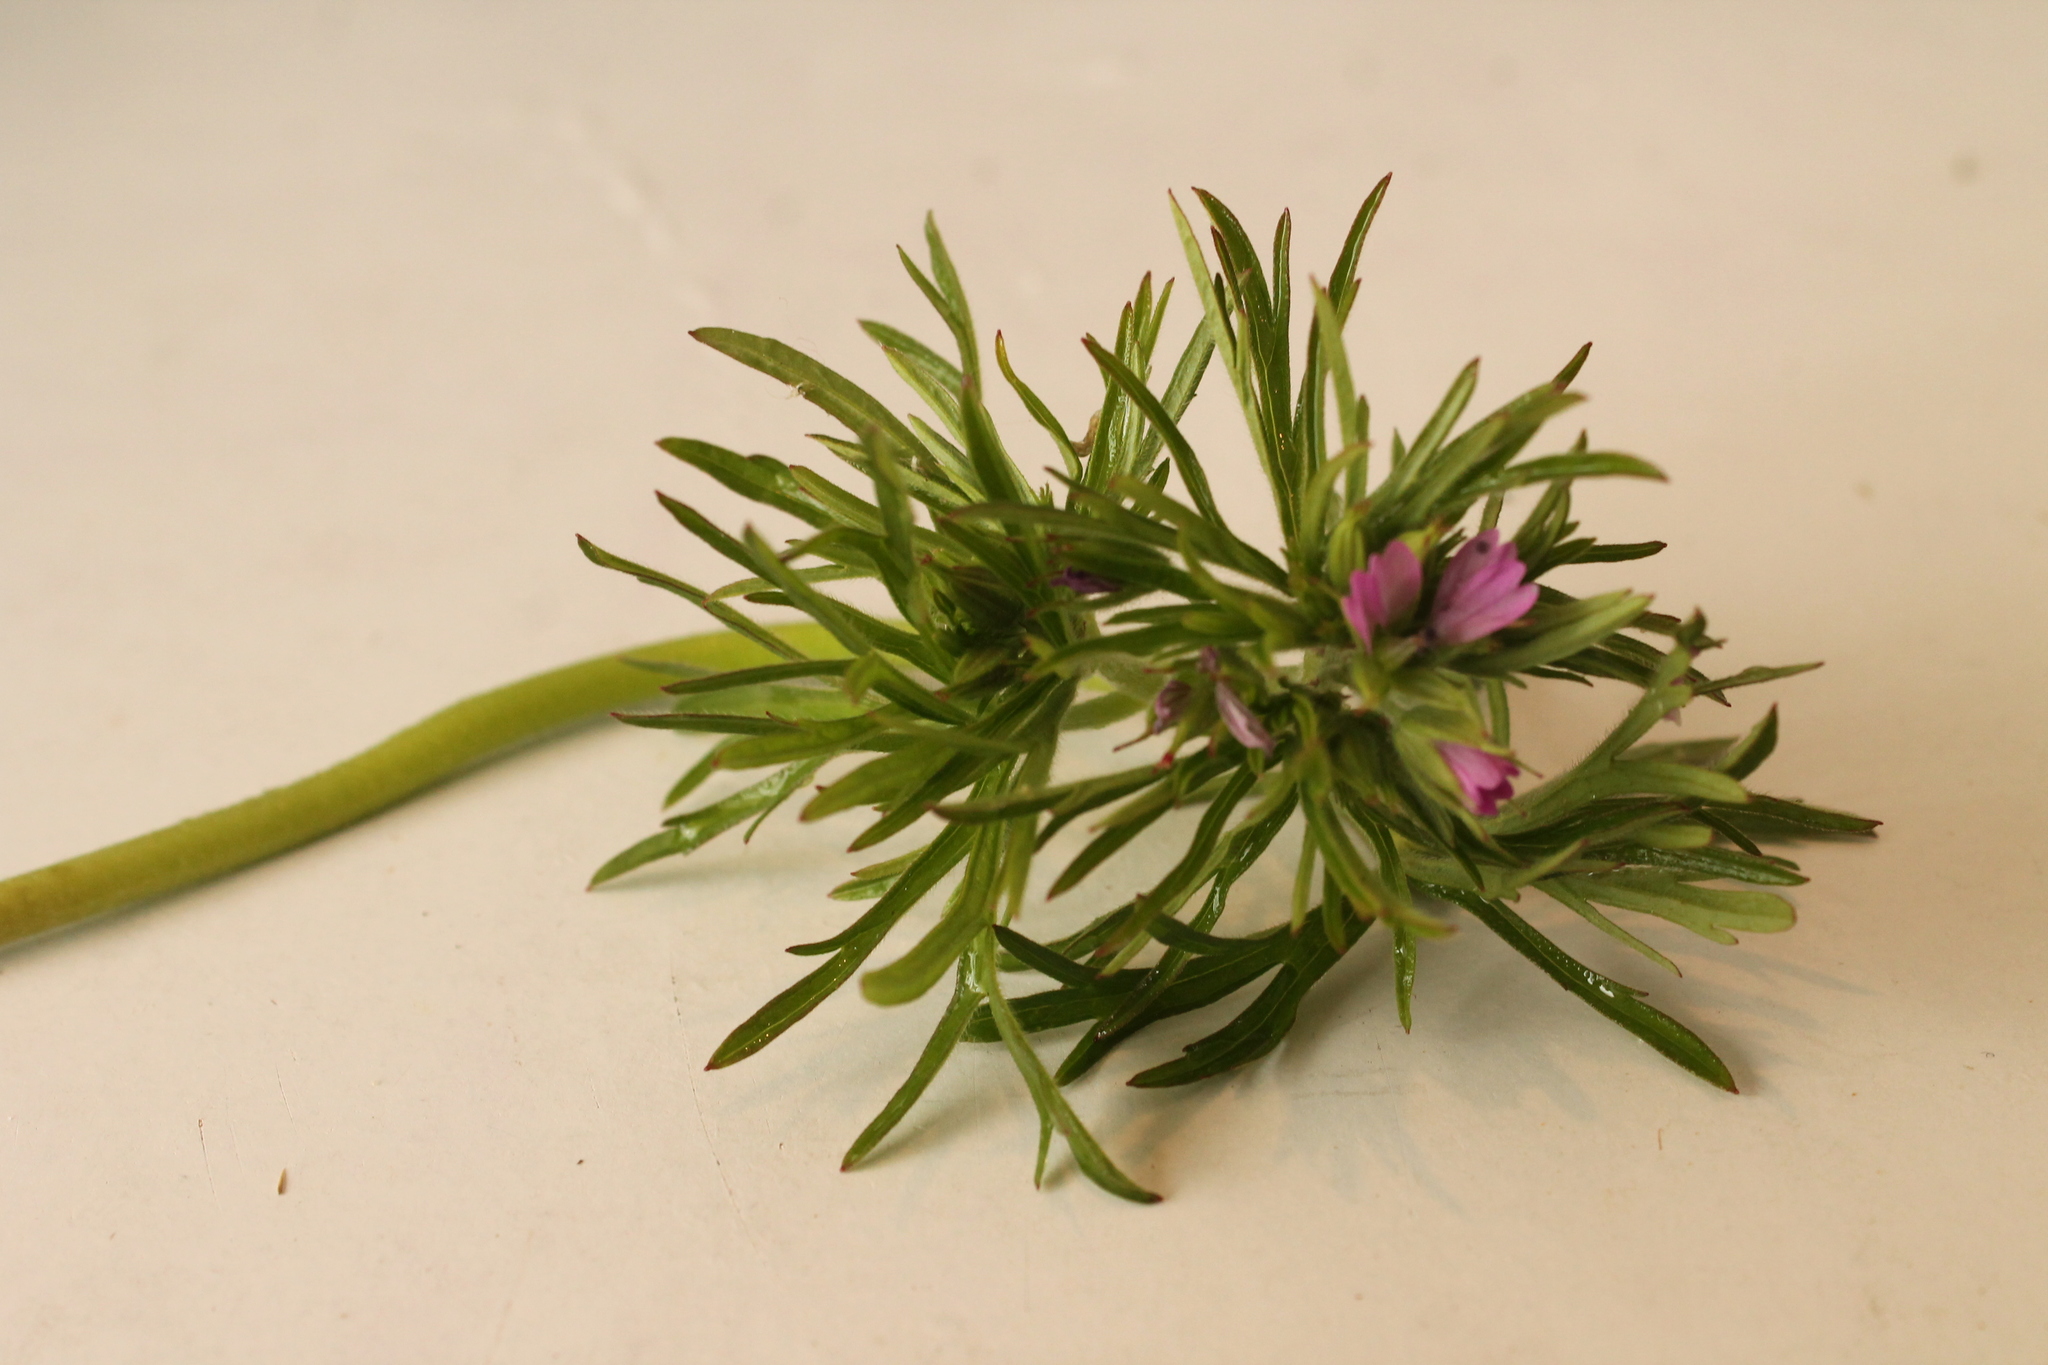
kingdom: Plantae
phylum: Tracheophyta
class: Magnoliopsida
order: Geraniales
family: Geraniaceae
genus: Geranium
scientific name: Geranium dissectum
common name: Cut-leaved crane's-bill
